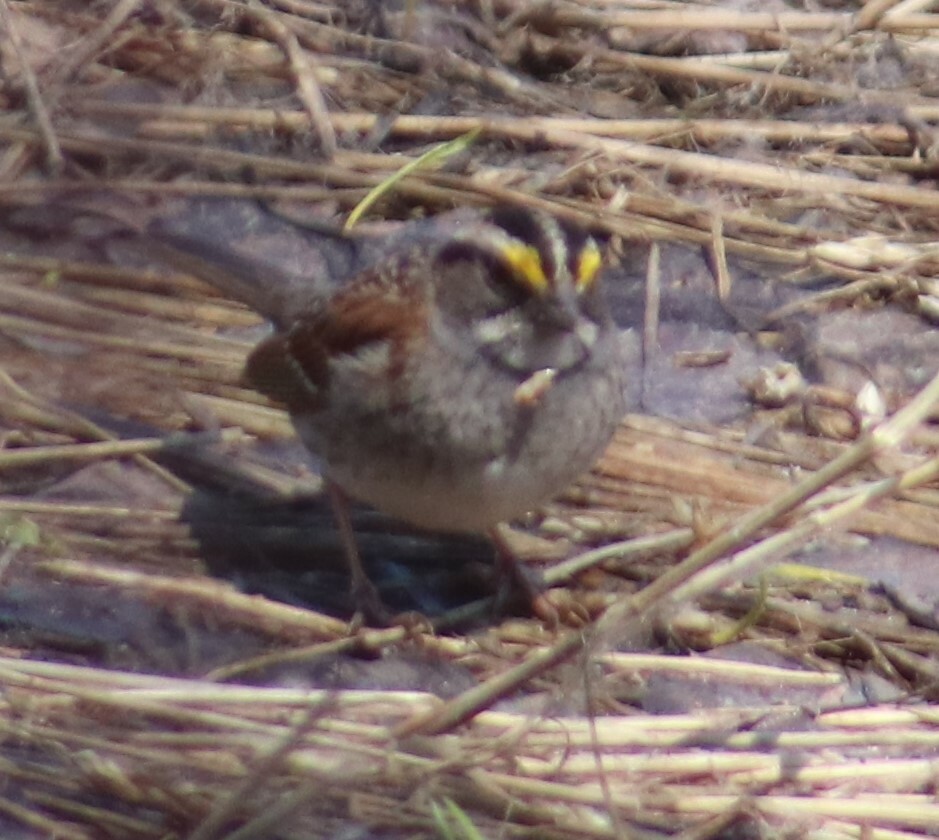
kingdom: Animalia
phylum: Chordata
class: Aves
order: Passeriformes
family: Passerellidae
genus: Zonotrichia
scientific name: Zonotrichia albicollis
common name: White-throated sparrow
